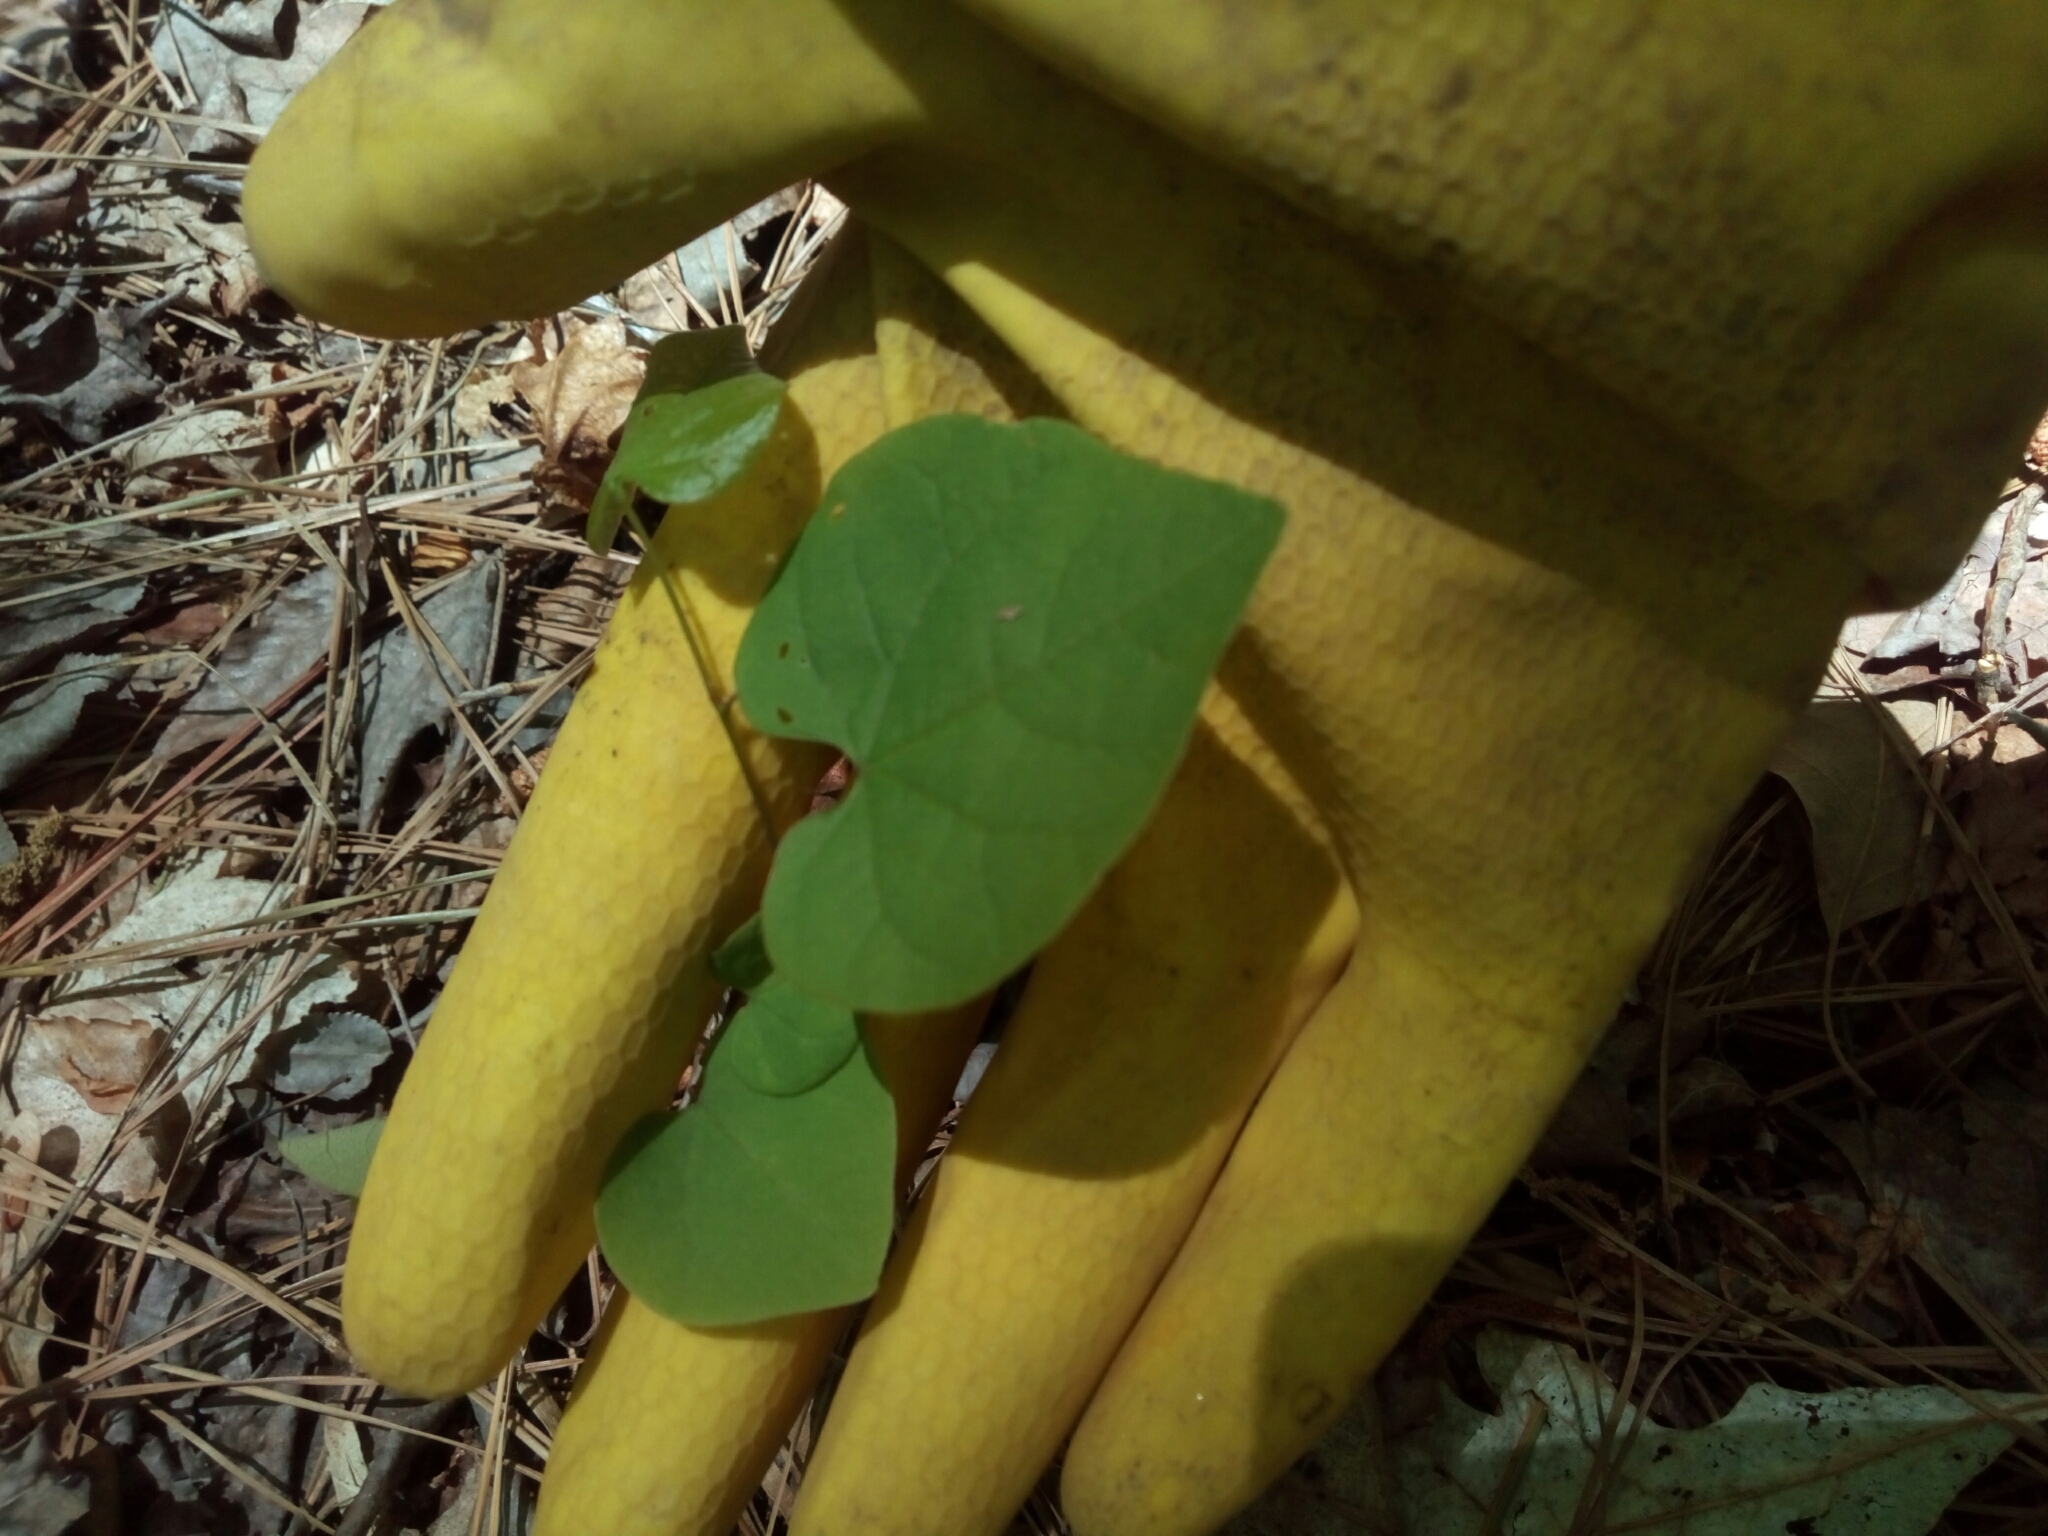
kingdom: Plantae
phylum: Tracheophyta
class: Magnoliopsida
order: Fabales
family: Fabaceae
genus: Cercis
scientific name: Cercis canadensis
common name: Eastern redbud
